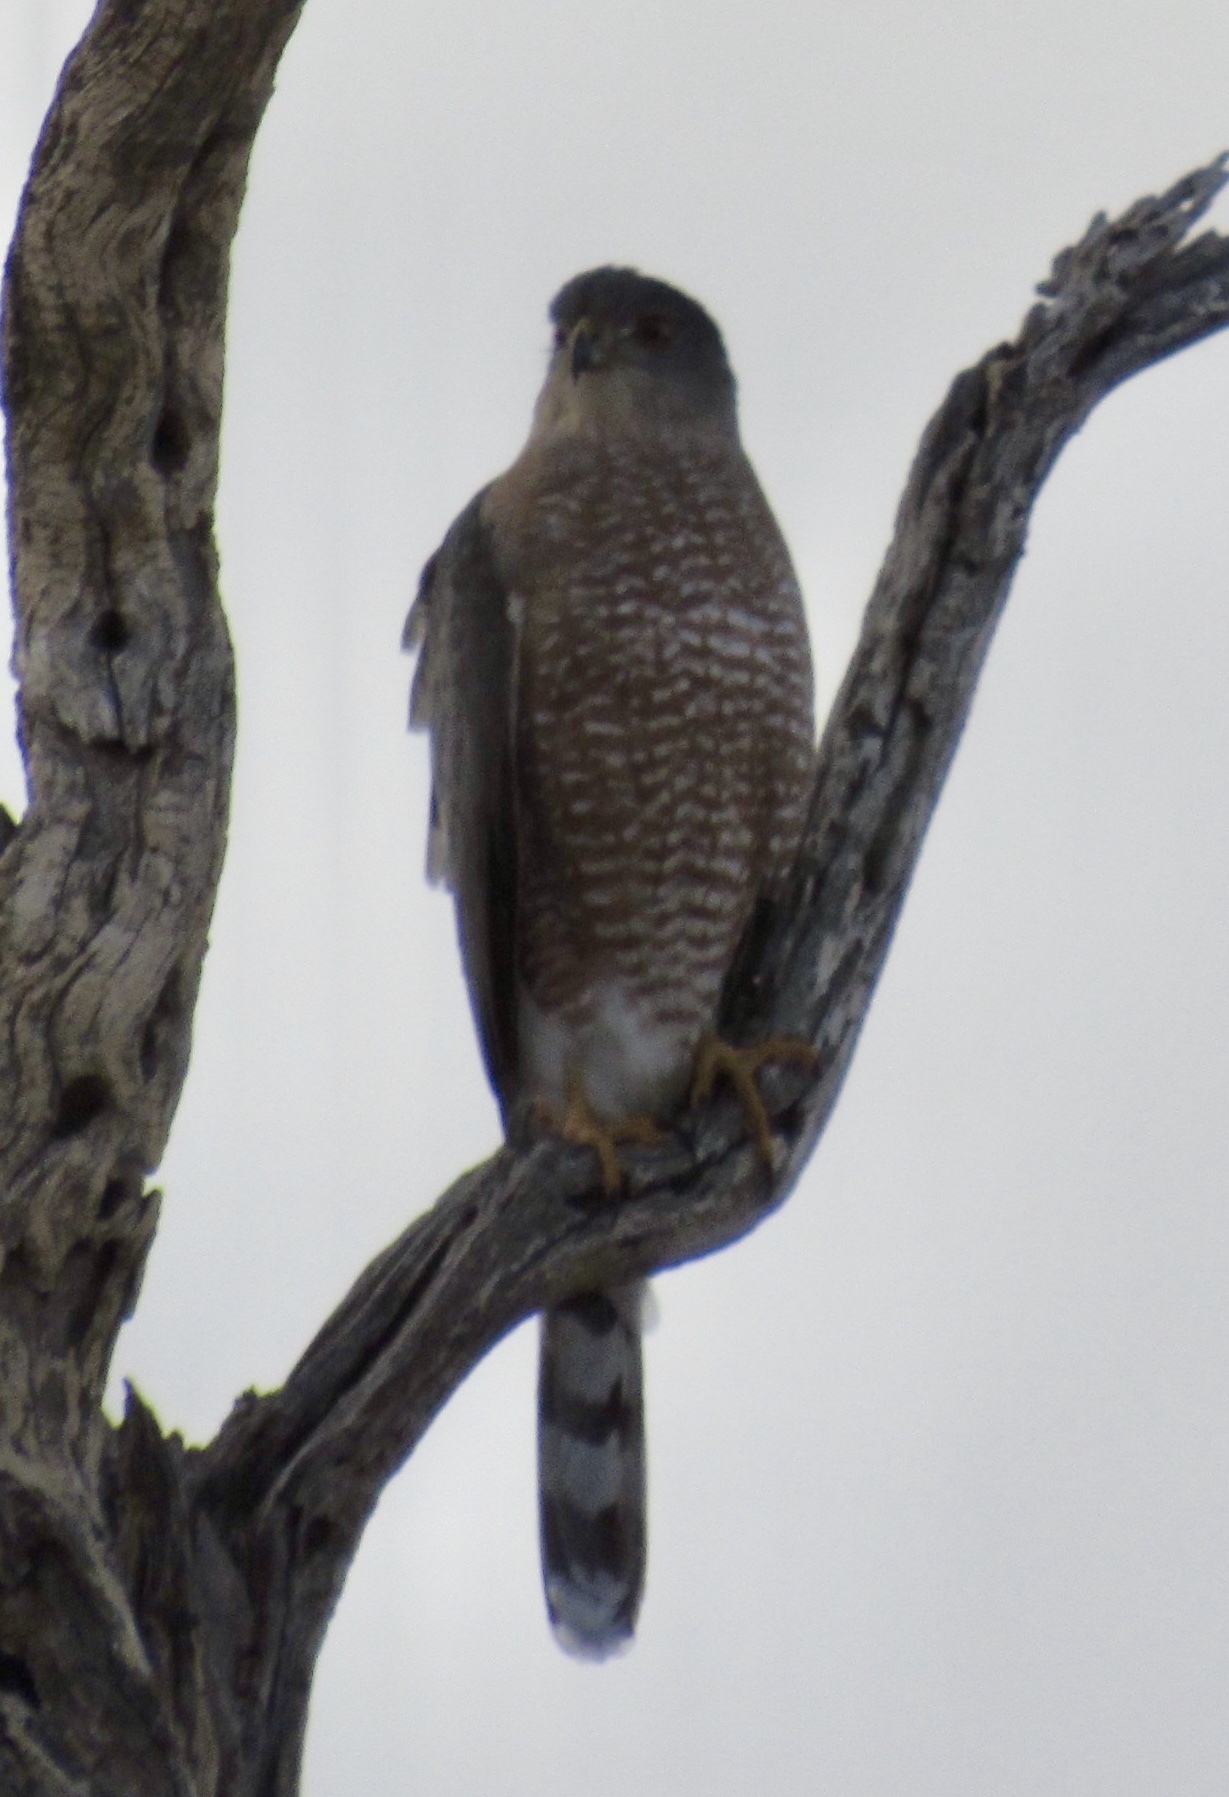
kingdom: Animalia
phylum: Chordata
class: Aves
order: Accipitriformes
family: Accipitridae
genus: Accipiter
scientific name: Accipiter cooperii
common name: Cooper's hawk
